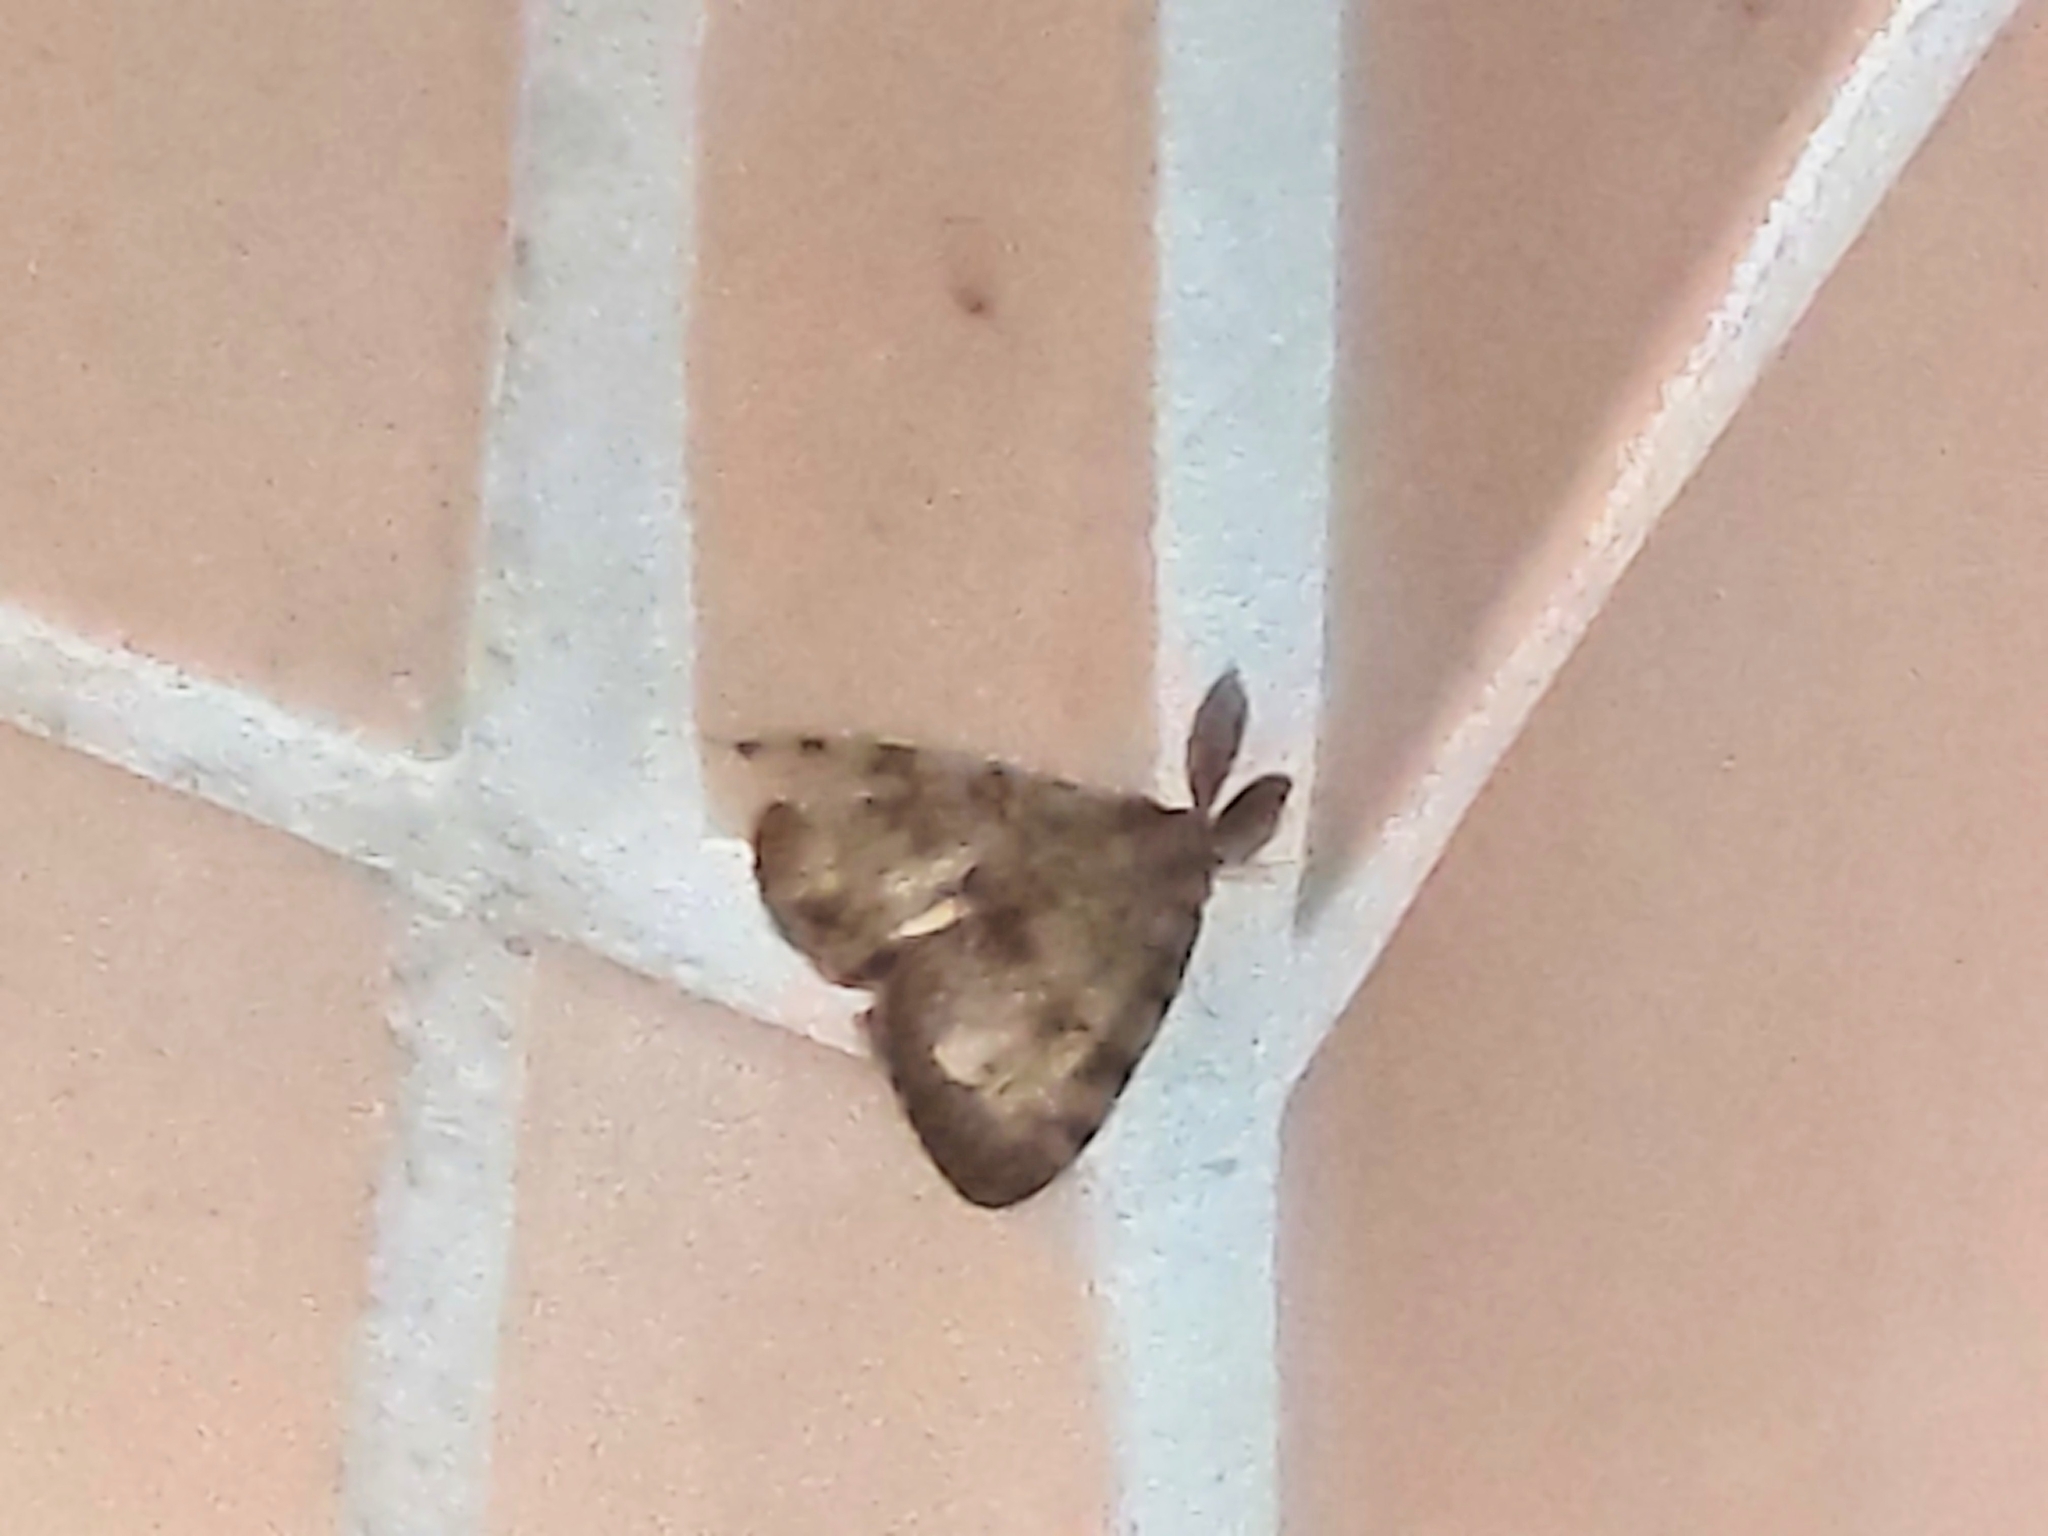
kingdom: Animalia
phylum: Arthropoda
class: Insecta
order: Lepidoptera
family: Erebidae
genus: Lymantria
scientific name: Lymantria dispar
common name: Gypsy moth
